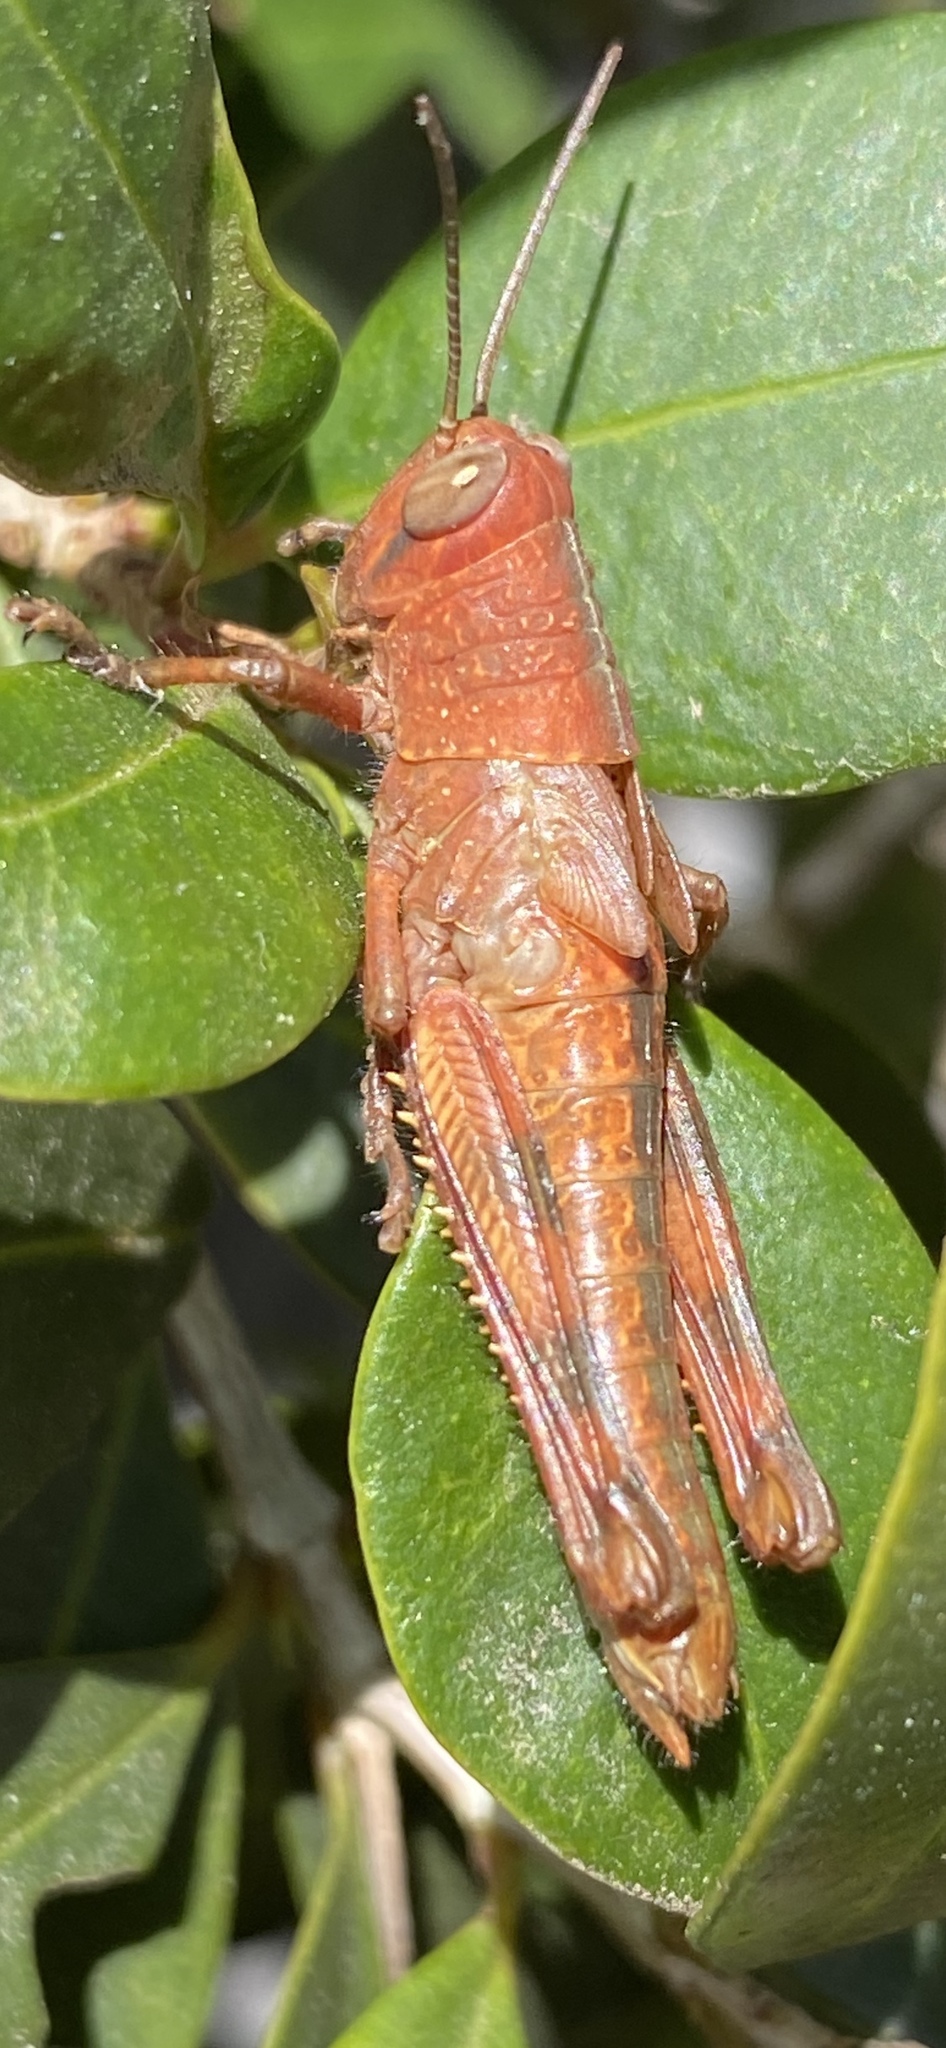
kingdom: Animalia
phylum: Arthropoda
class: Insecta
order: Orthoptera
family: Acrididae
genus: Valanga
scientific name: Valanga irregularis
